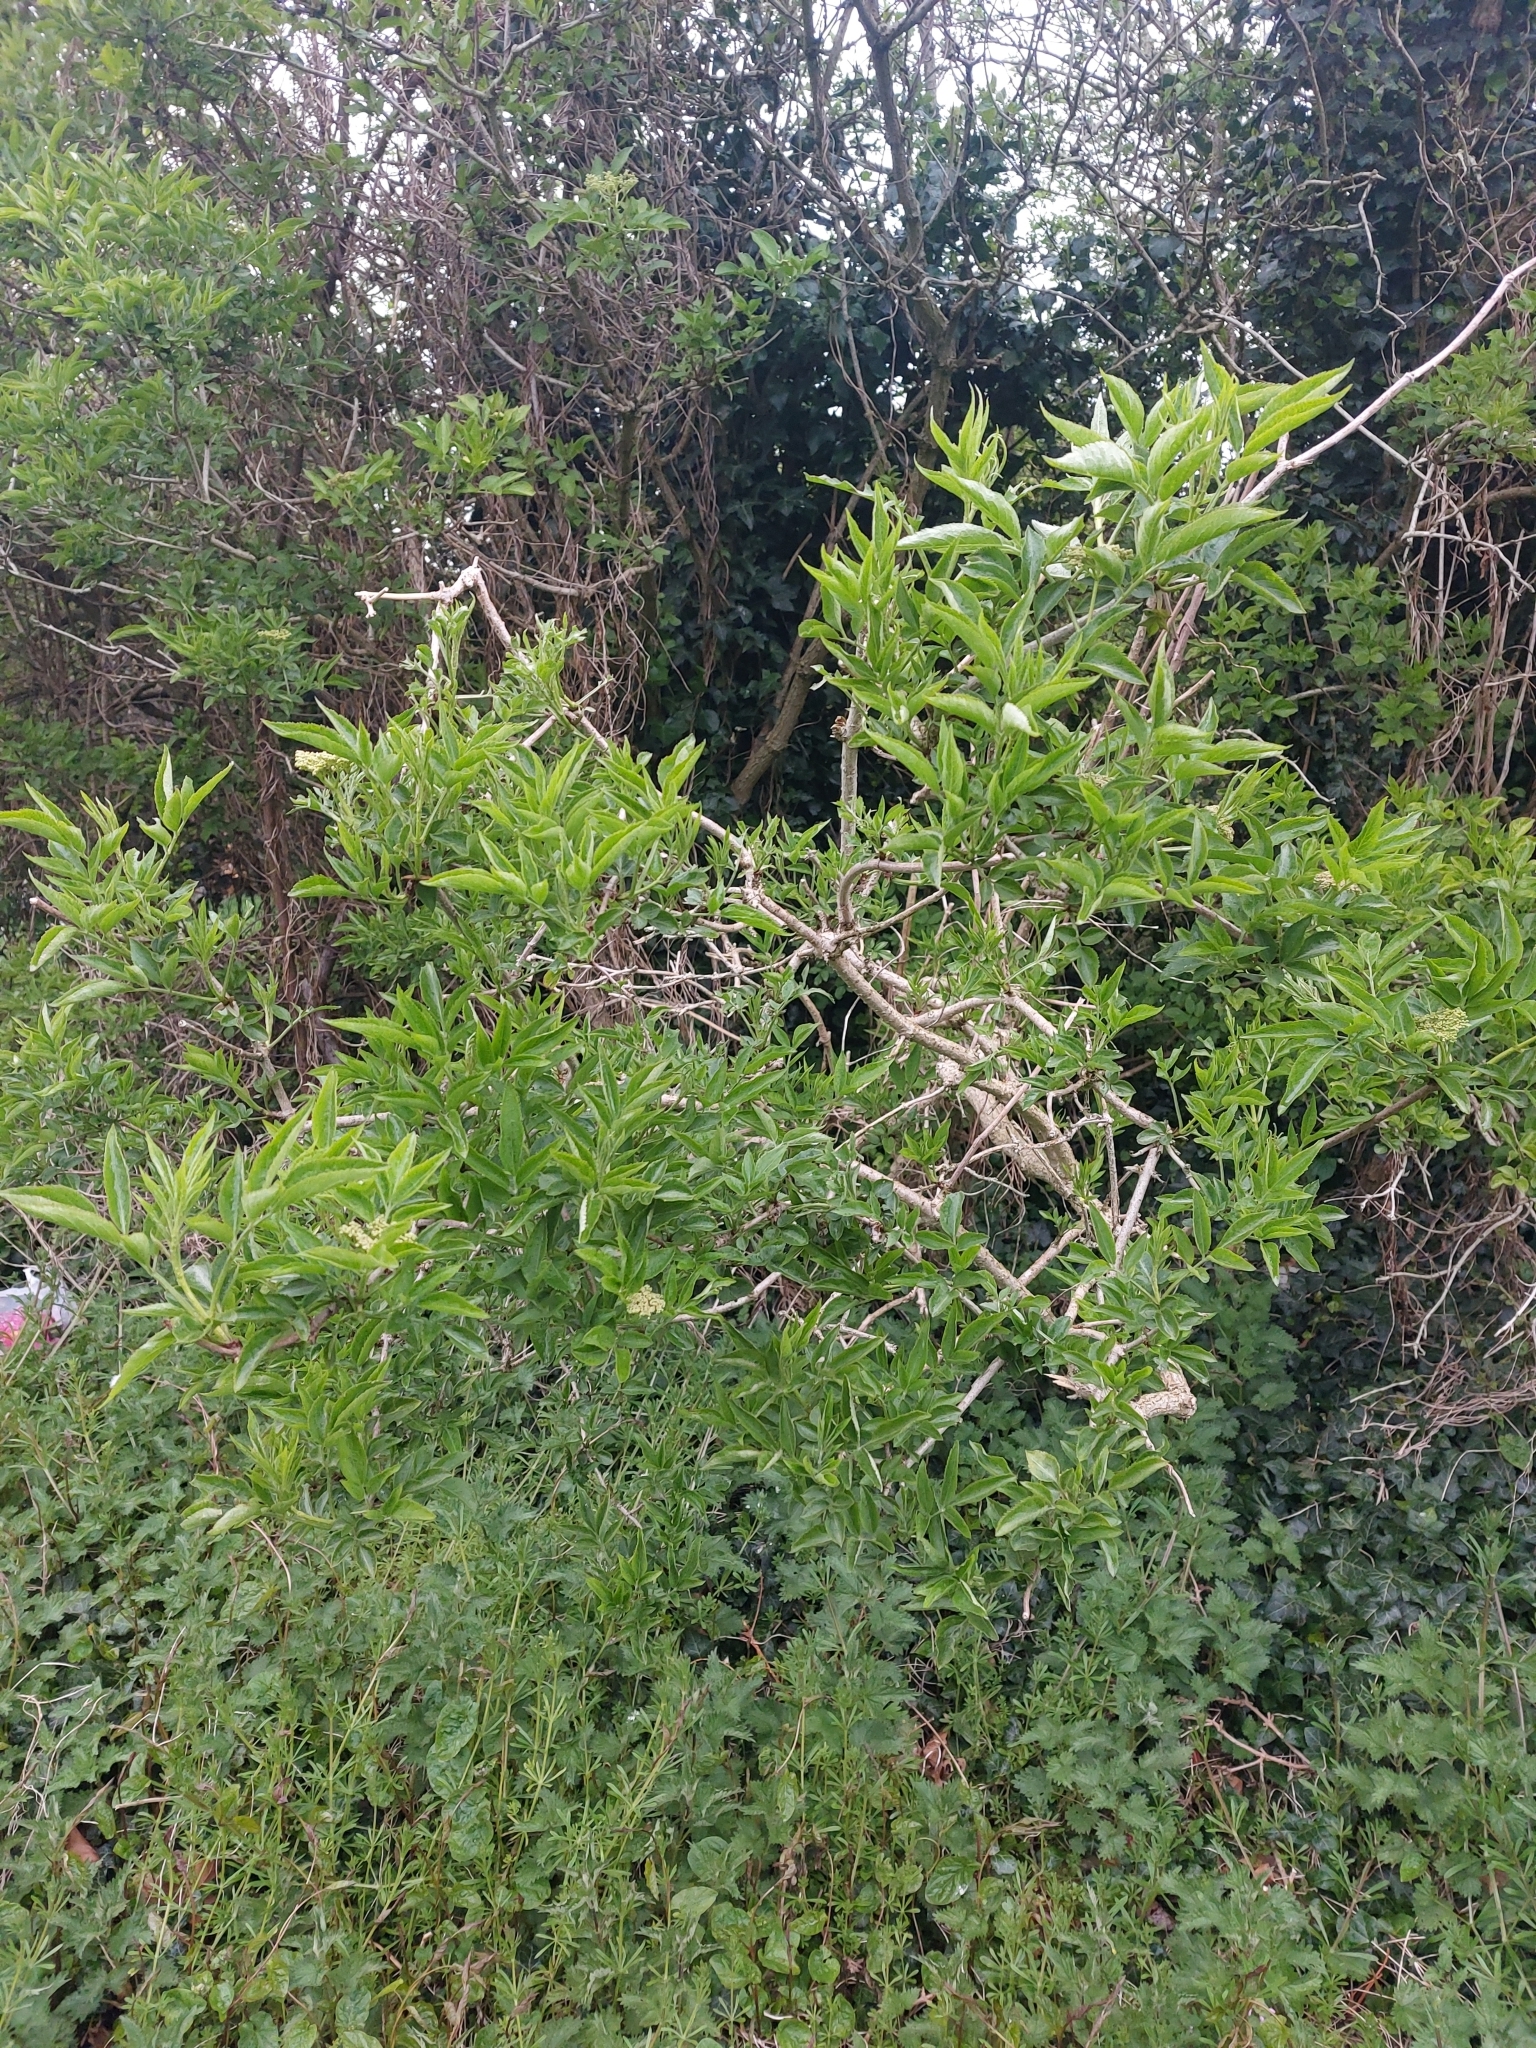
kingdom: Plantae
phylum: Tracheophyta
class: Magnoliopsida
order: Dipsacales
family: Viburnaceae
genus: Sambucus
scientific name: Sambucus nigra
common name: Elder
